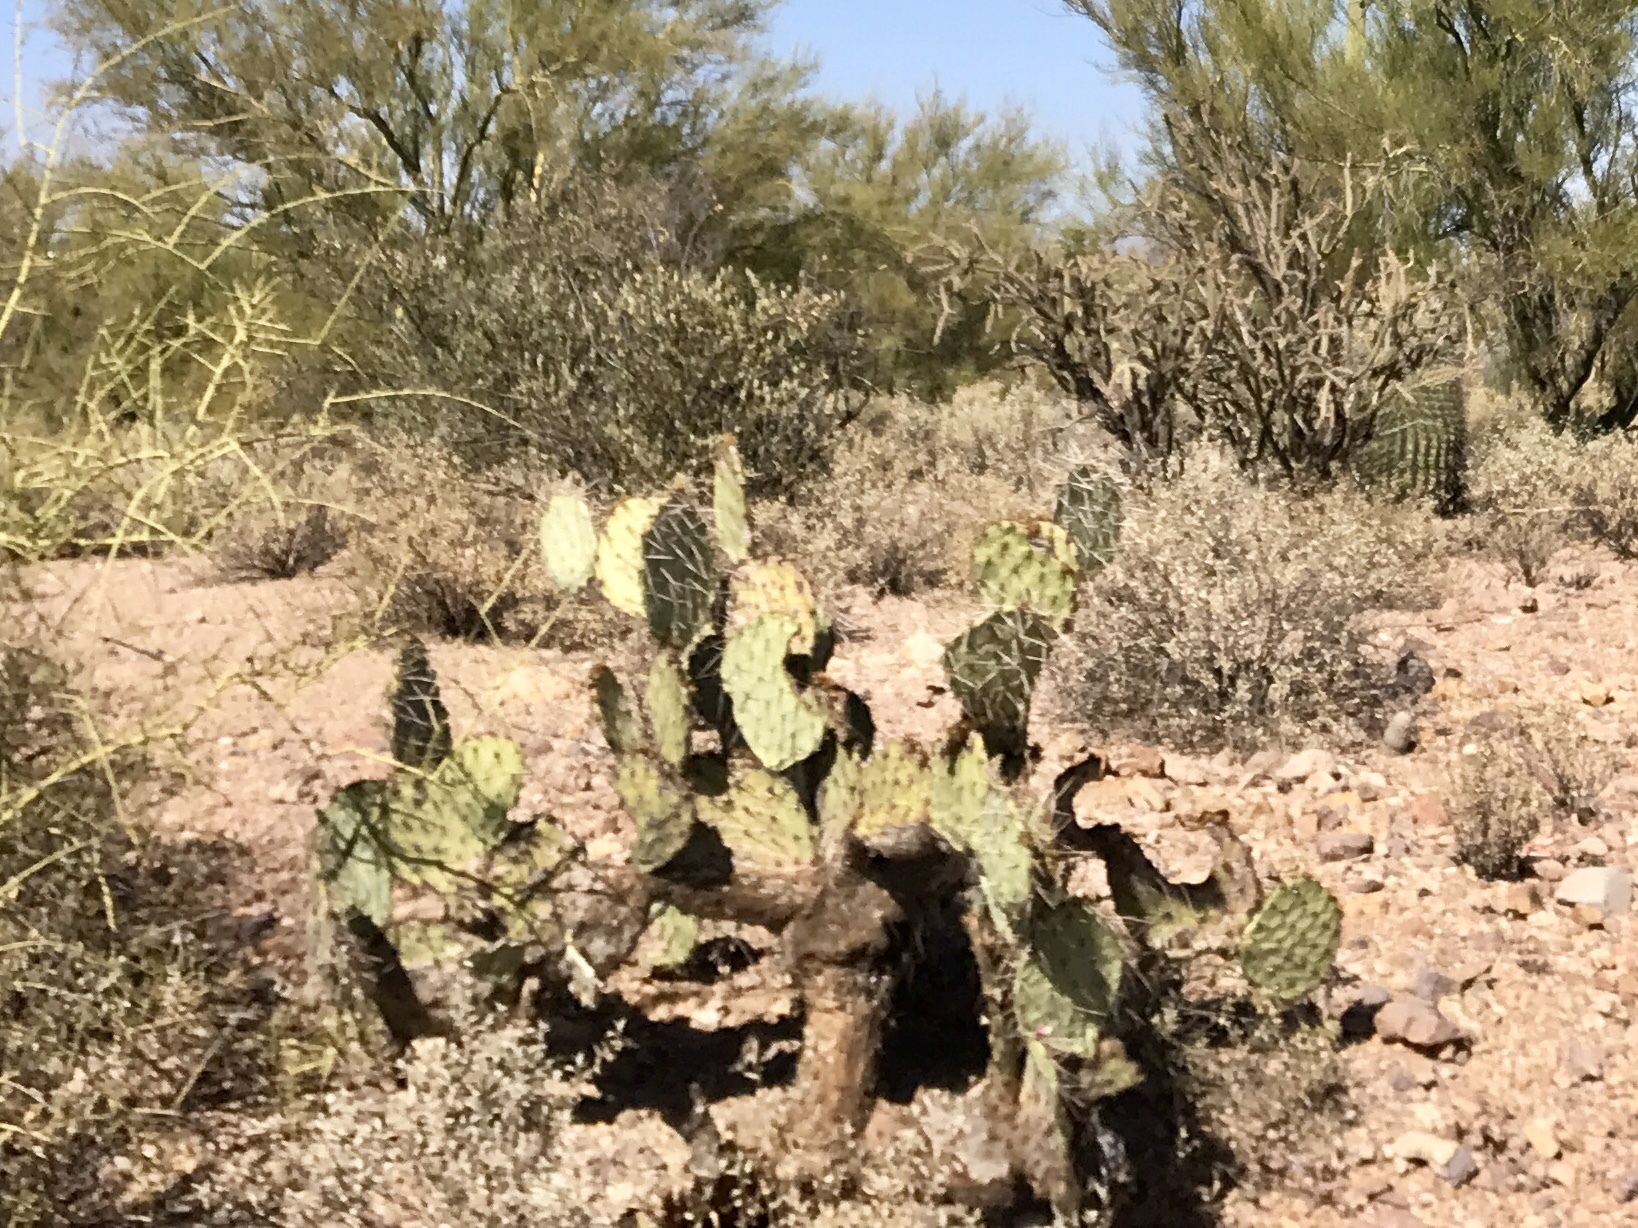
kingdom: Plantae
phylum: Tracheophyta
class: Magnoliopsida
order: Caryophyllales
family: Cactaceae
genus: Opuntia
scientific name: Opuntia engelmannii
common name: Cactus-apple
